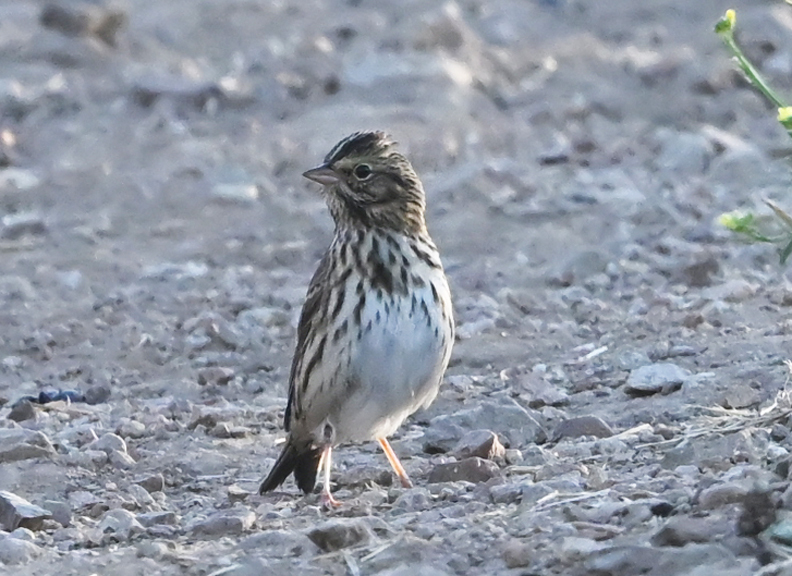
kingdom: Animalia
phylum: Chordata
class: Aves
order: Passeriformes
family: Passerellidae
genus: Passerculus
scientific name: Passerculus sandwichensis
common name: Savannah sparrow
